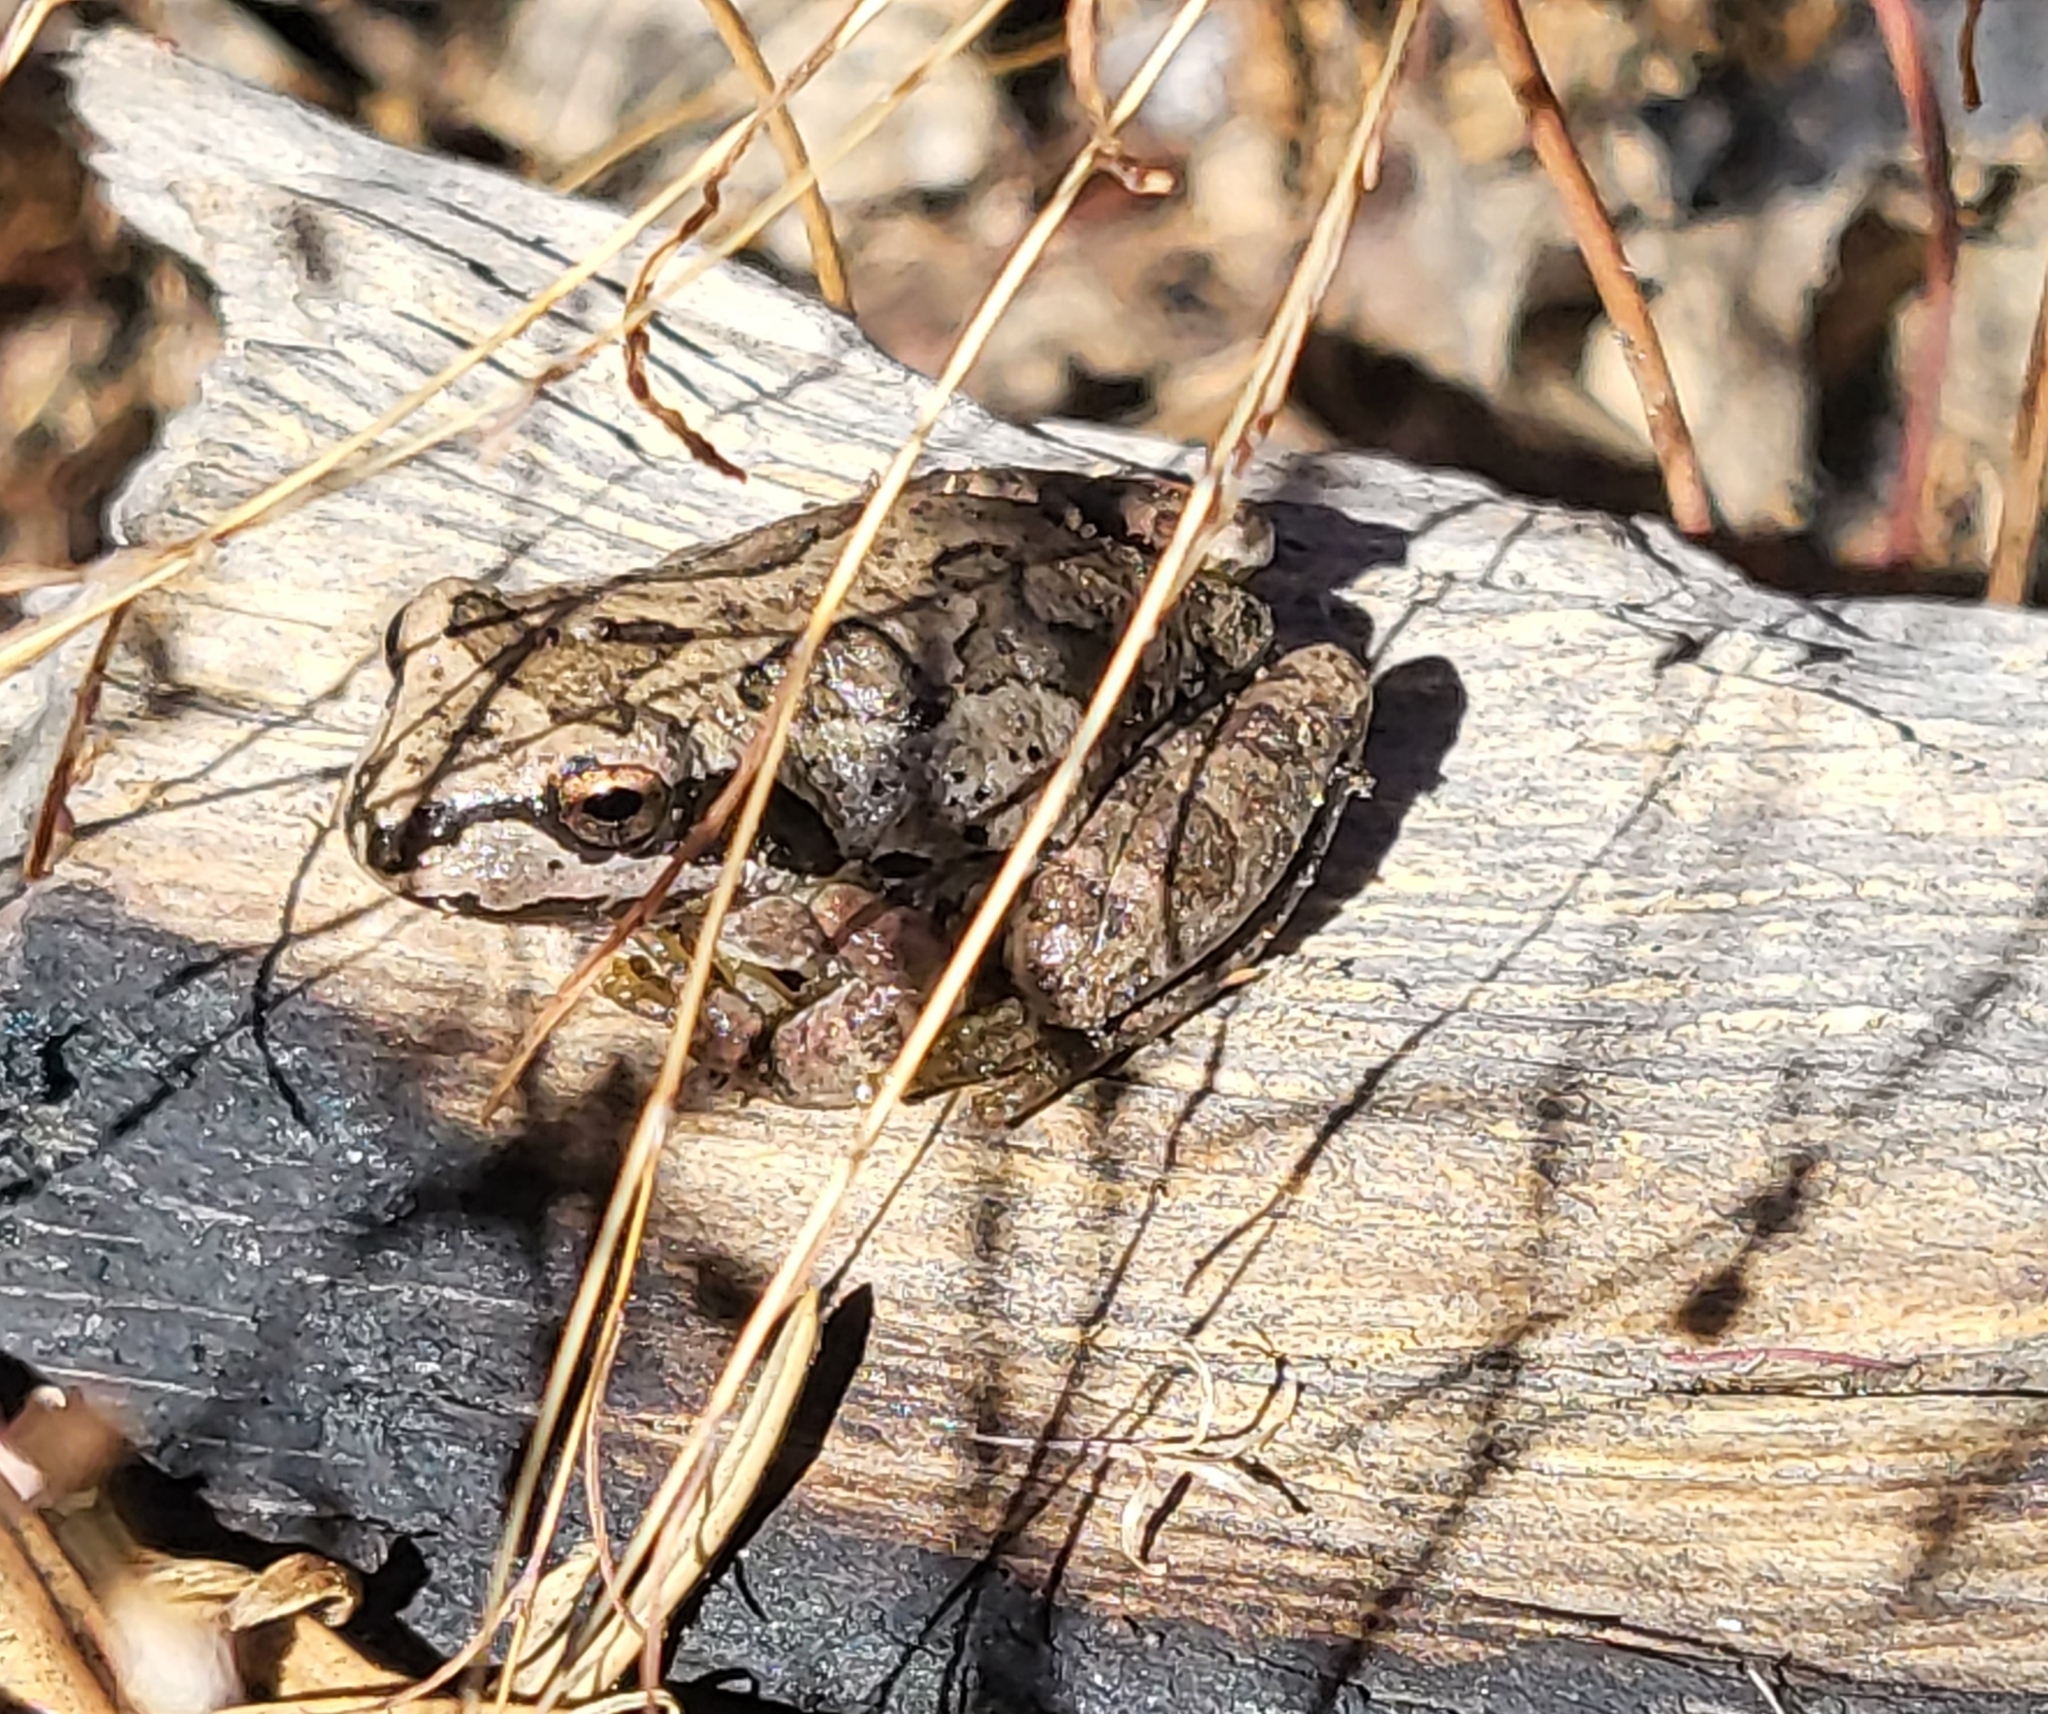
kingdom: Animalia
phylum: Chordata
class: Amphibia
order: Anura
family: Hylidae
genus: Pseudacris
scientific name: Pseudacris regilla
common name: Pacific chorus frog
